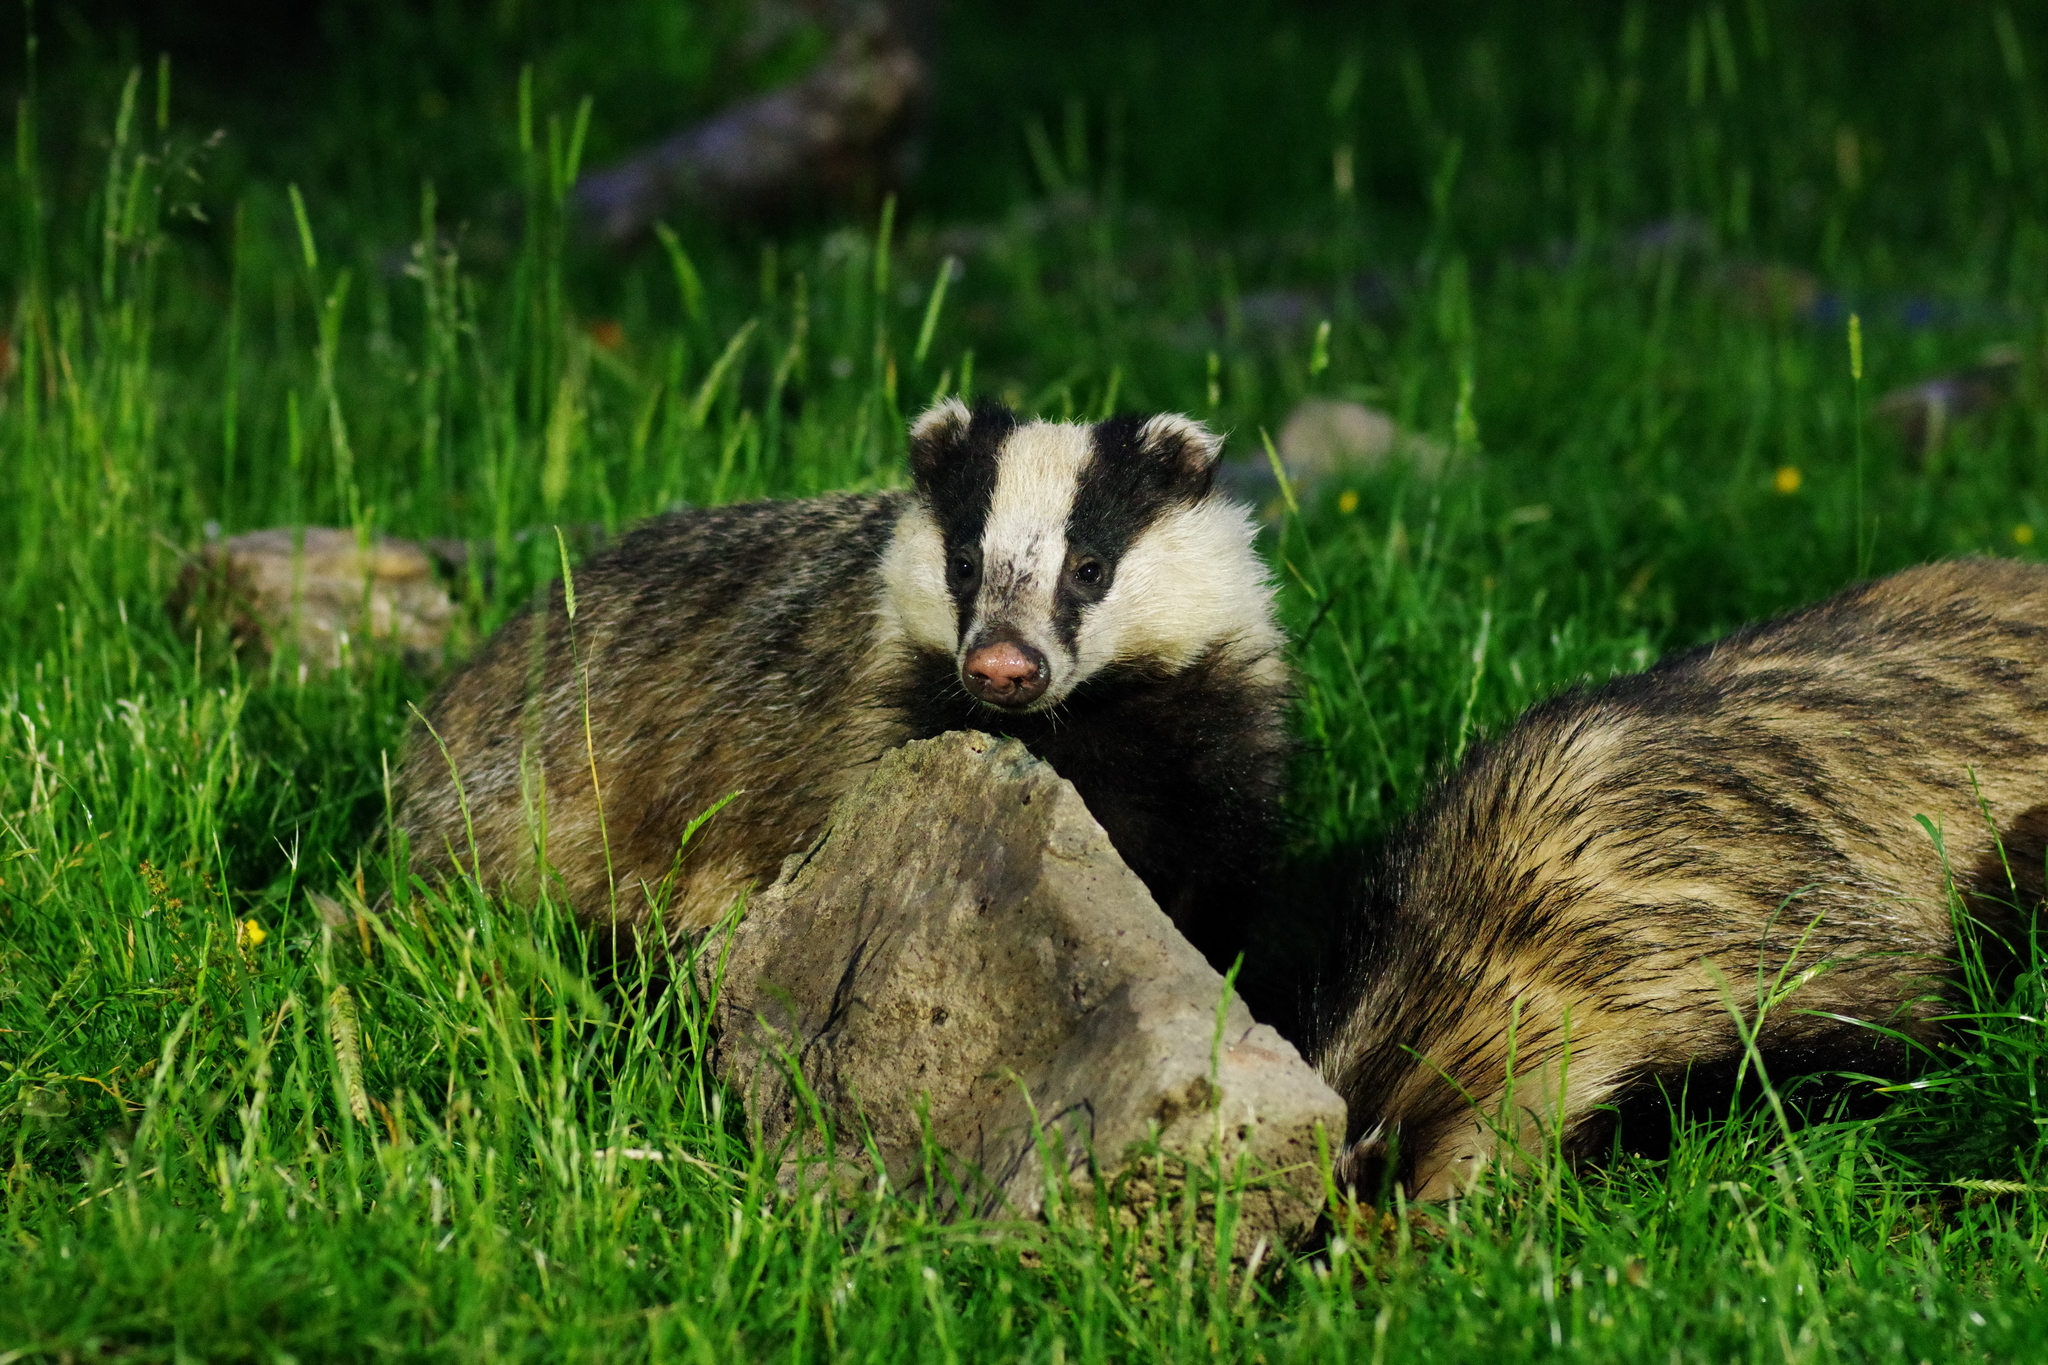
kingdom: Animalia
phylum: Chordata
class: Mammalia
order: Carnivora
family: Mustelidae
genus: Meles
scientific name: Meles meles
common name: Eurasian badger
